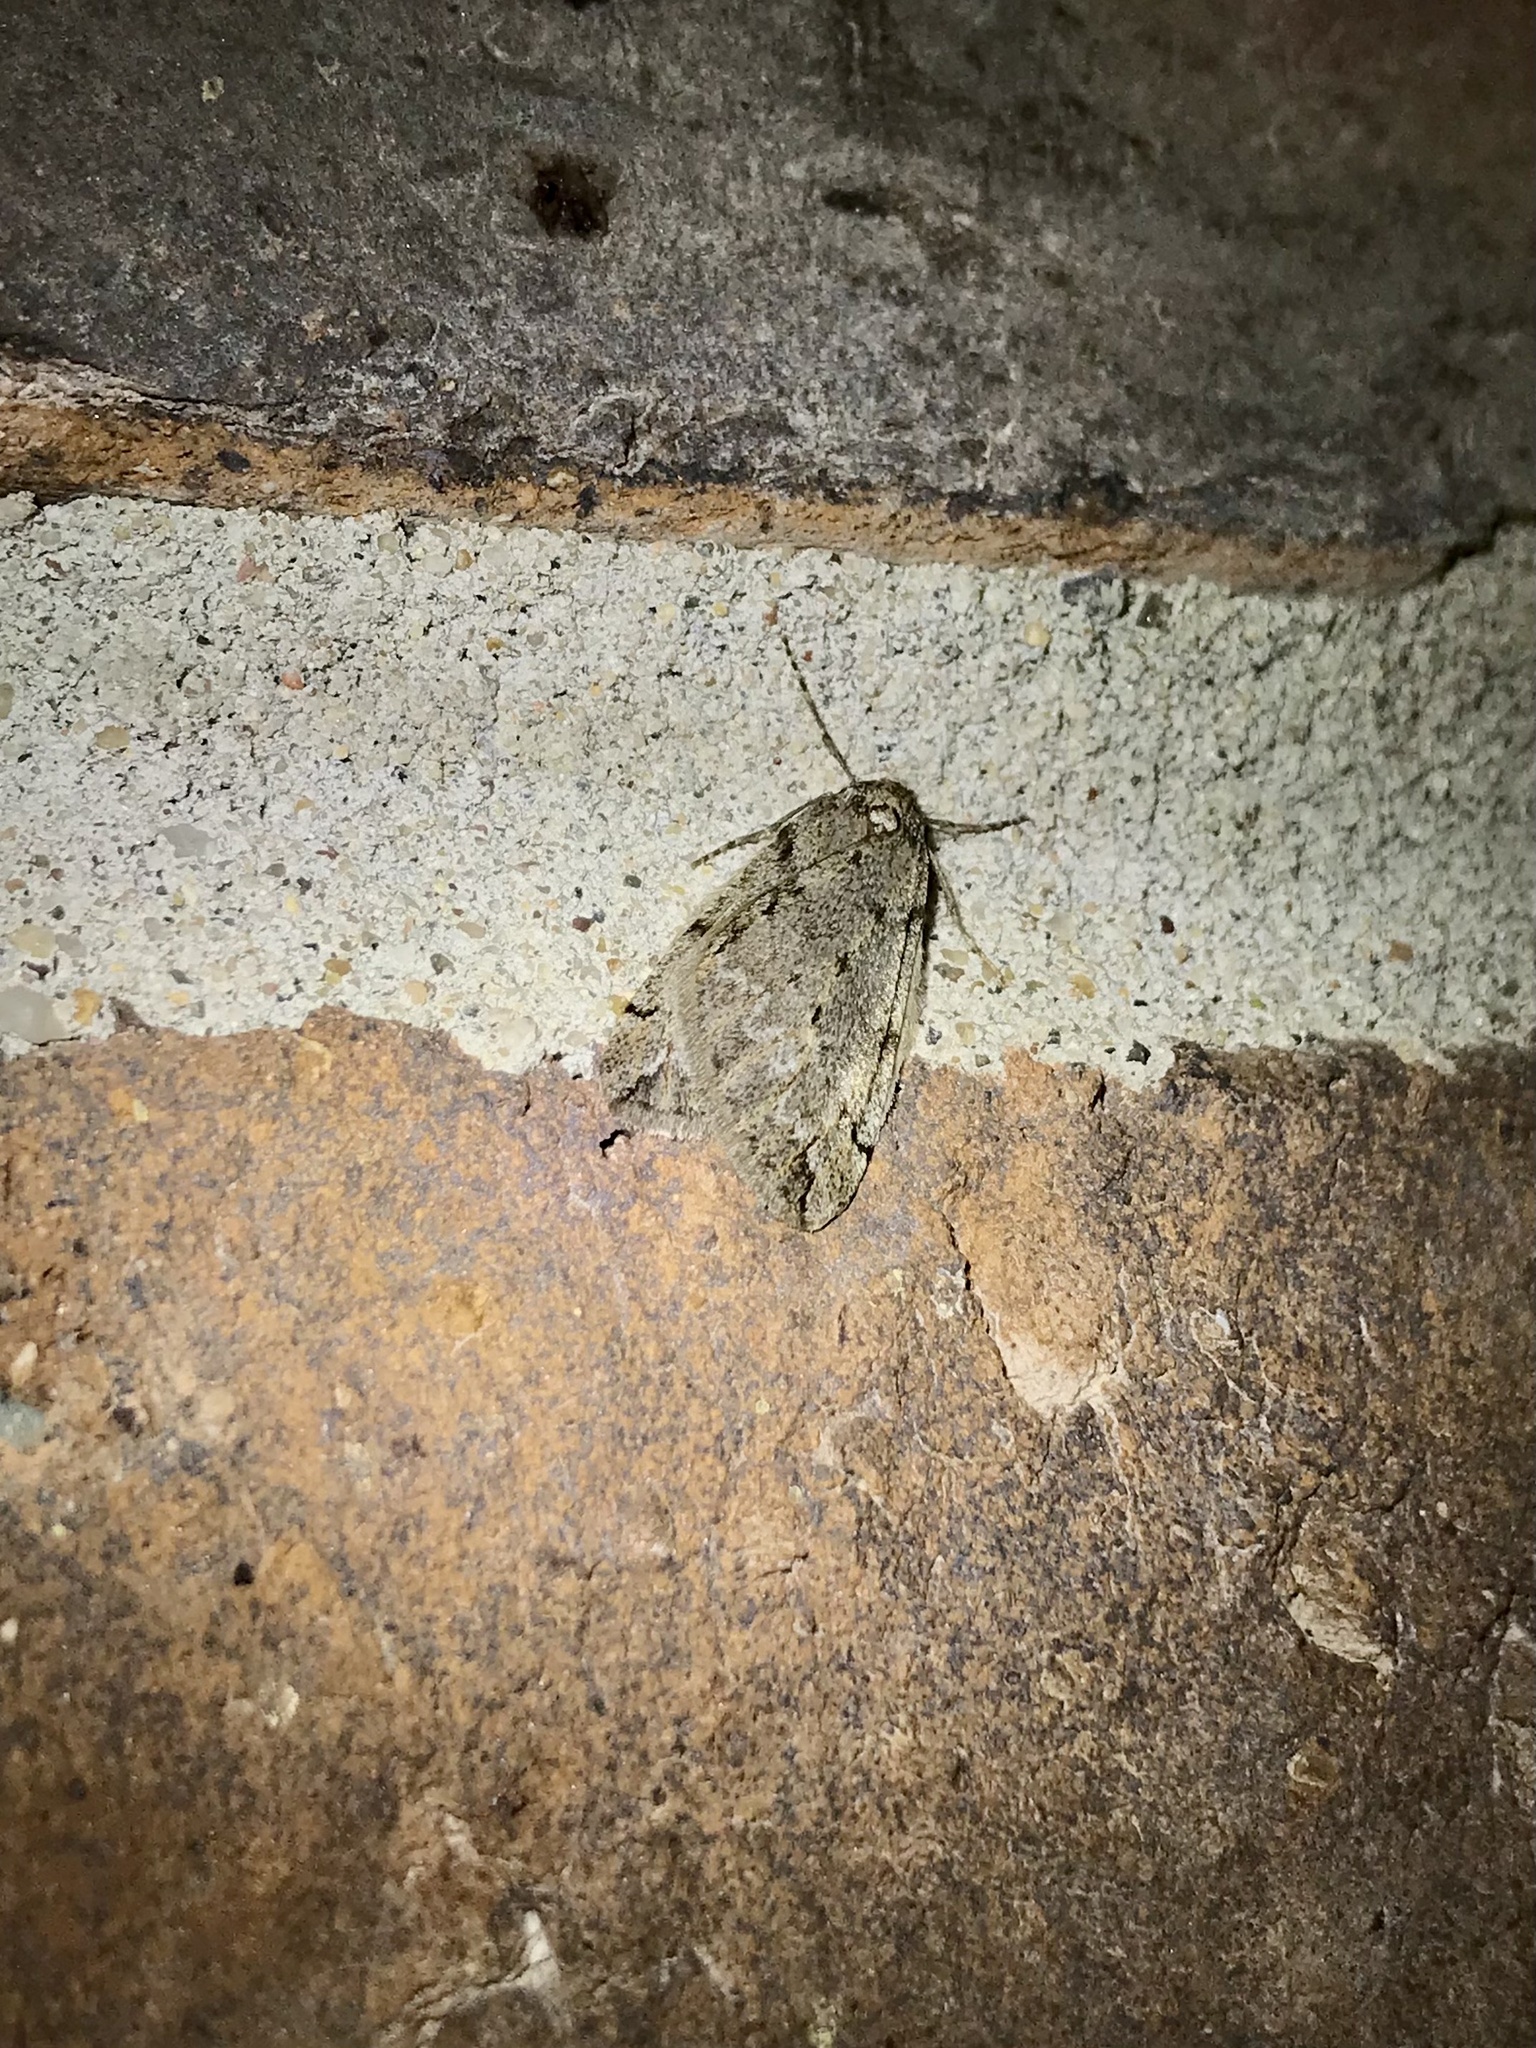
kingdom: Animalia
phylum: Arthropoda
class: Insecta
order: Lepidoptera
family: Geometridae
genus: Paleacrita
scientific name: Paleacrita vernata
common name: Spring cankerworm
